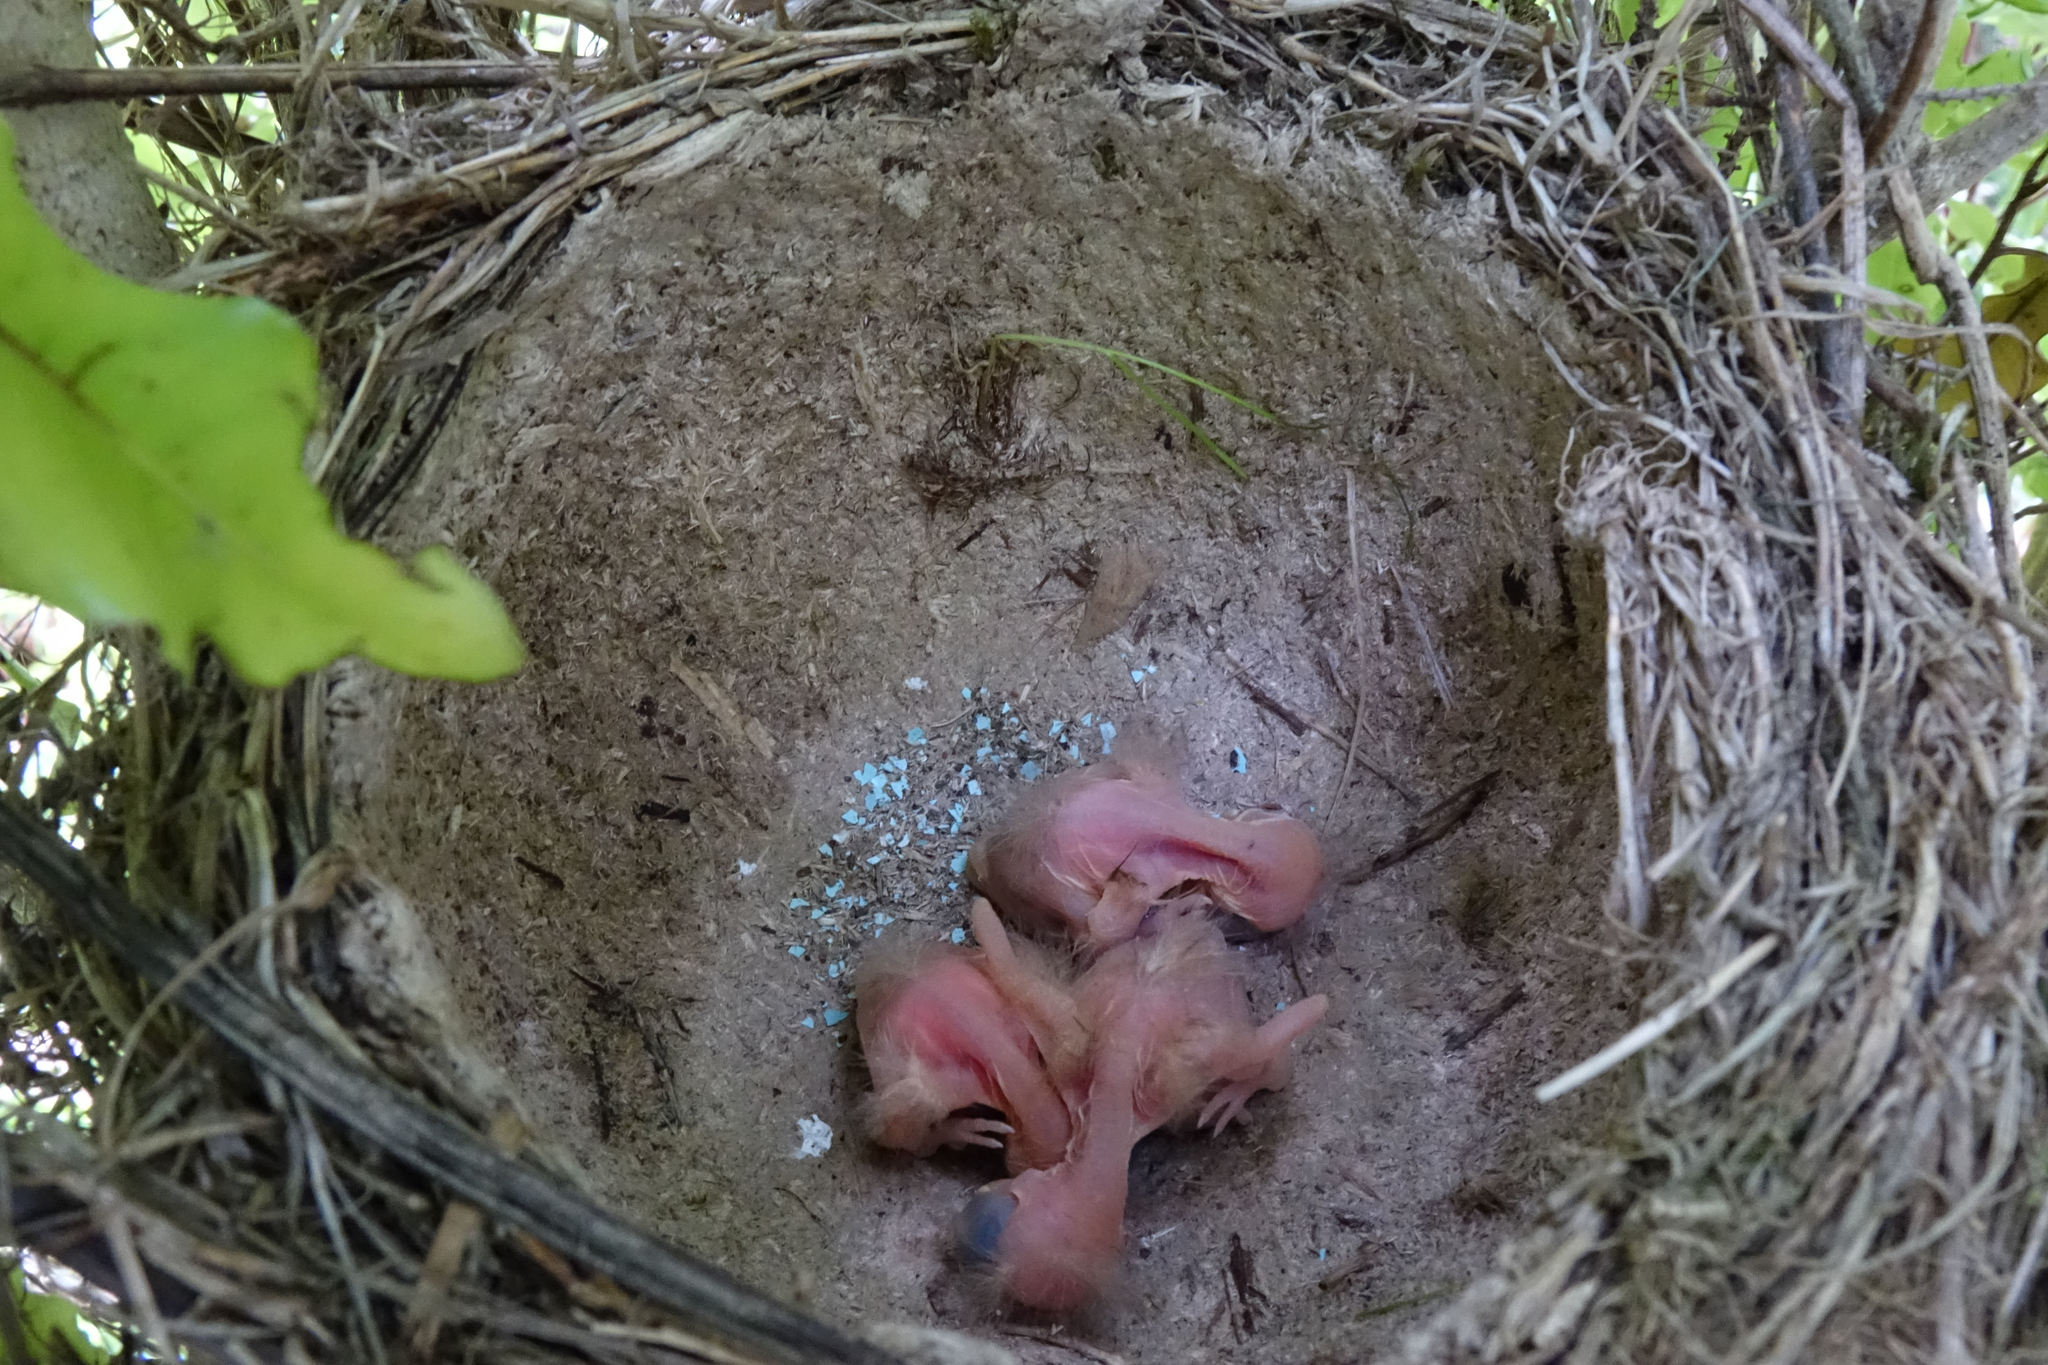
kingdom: Animalia
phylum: Chordata
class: Aves
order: Passeriformes
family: Turdidae
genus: Turdus
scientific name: Turdus philomelos
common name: Song thrush
